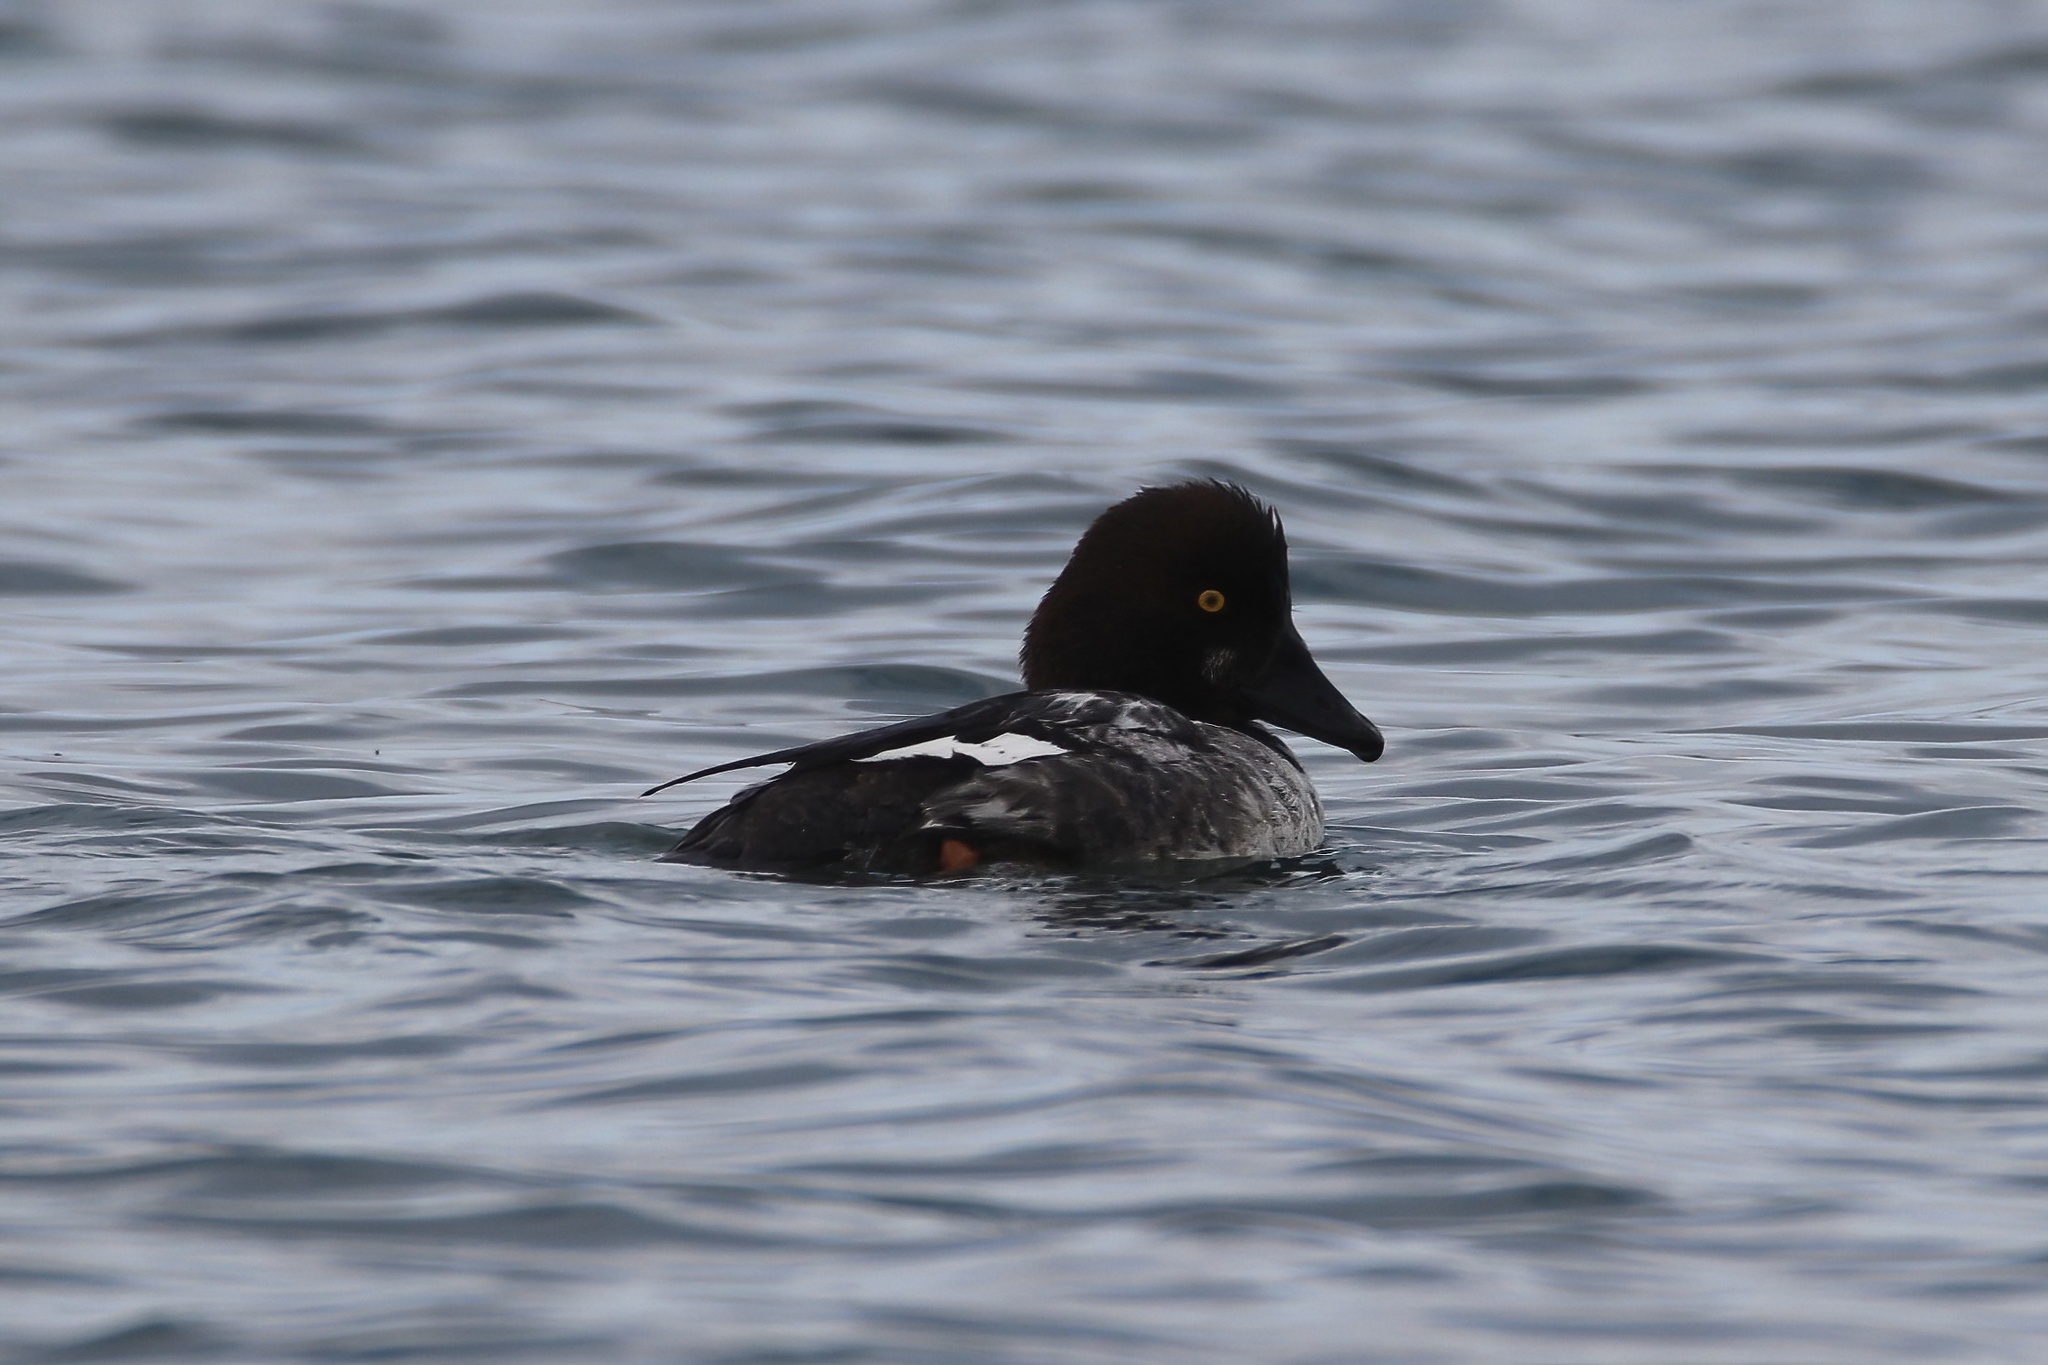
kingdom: Animalia
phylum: Chordata
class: Aves
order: Anseriformes
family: Anatidae
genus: Bucephala
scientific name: Bucephala clangula
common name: Common goldeneye
